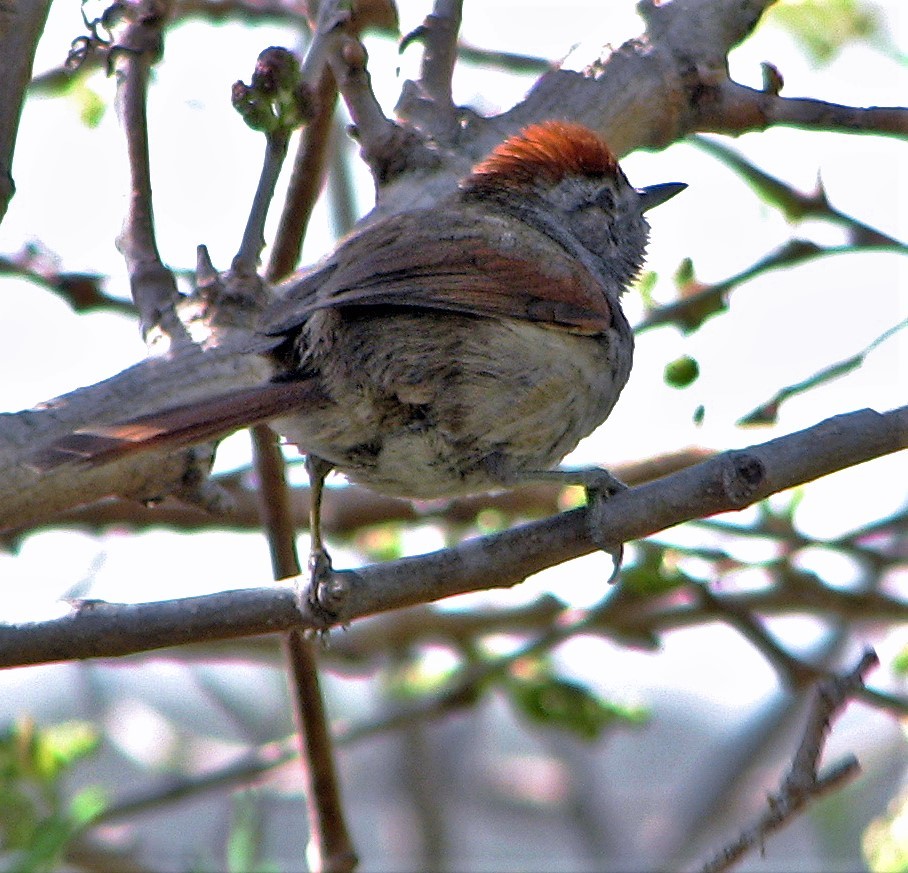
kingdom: Animalia
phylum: Chordata
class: Aves
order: Passeriformes
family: Furnariidae
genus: Synallaxis
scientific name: Synallaxis frontalis
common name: Sooty-fronted spinetail
